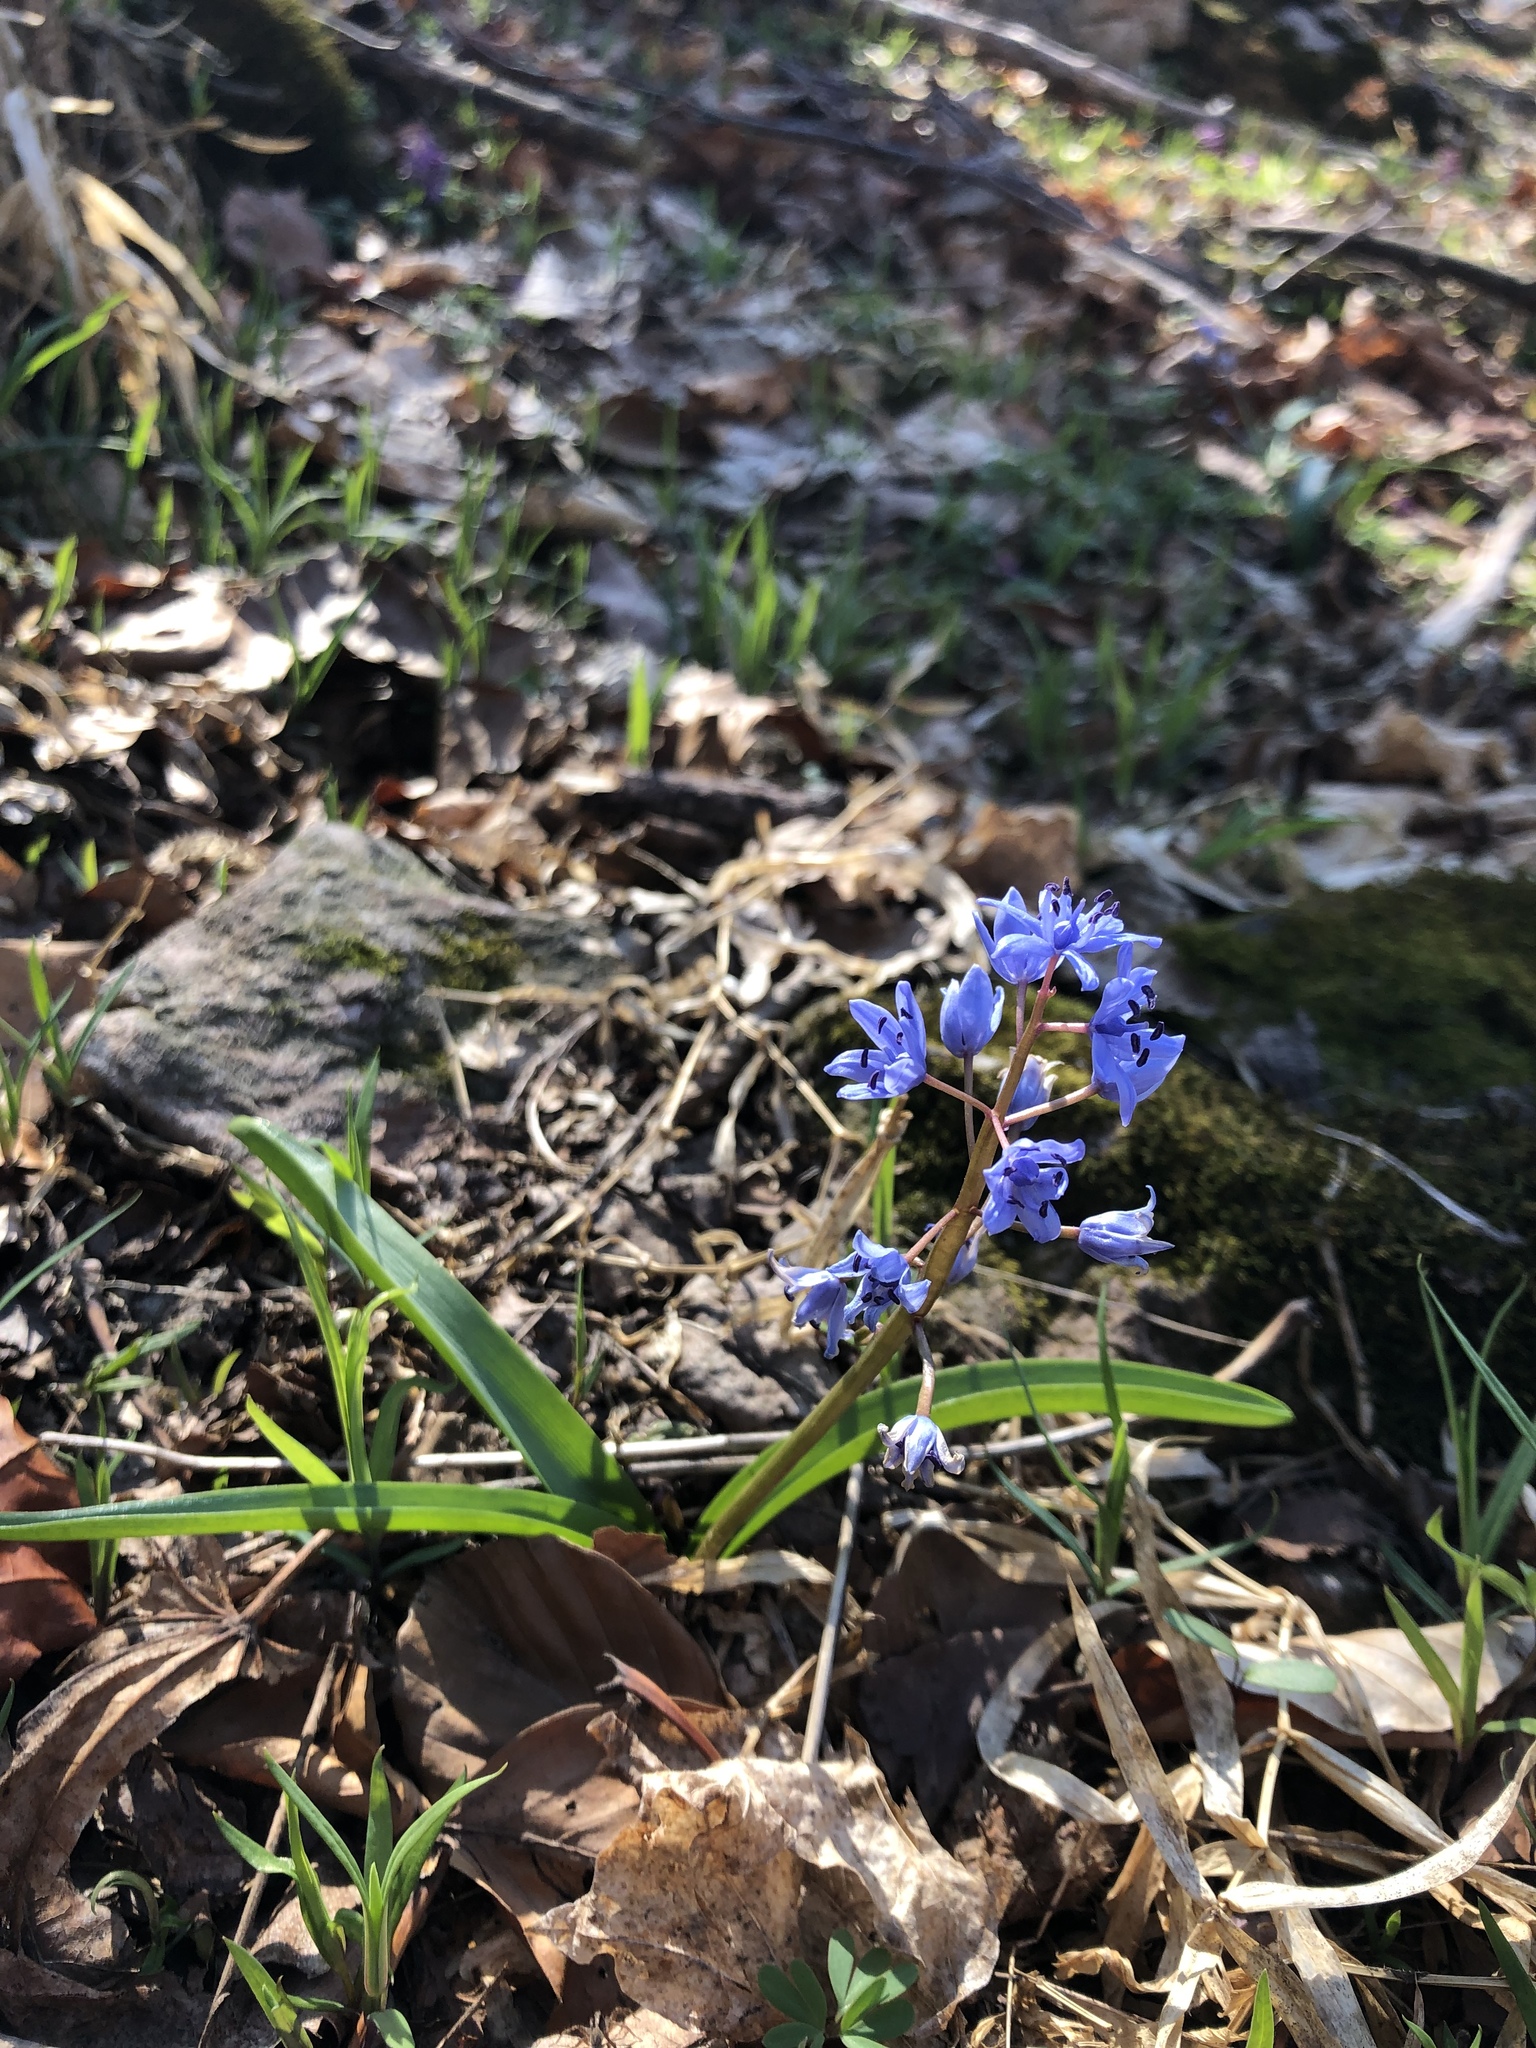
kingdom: Plantae
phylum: Tracheophyta
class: Liliopsida
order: Asparagales
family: Asparagaceae
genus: Scilla
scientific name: Scilla bifolia
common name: Alpine squill
